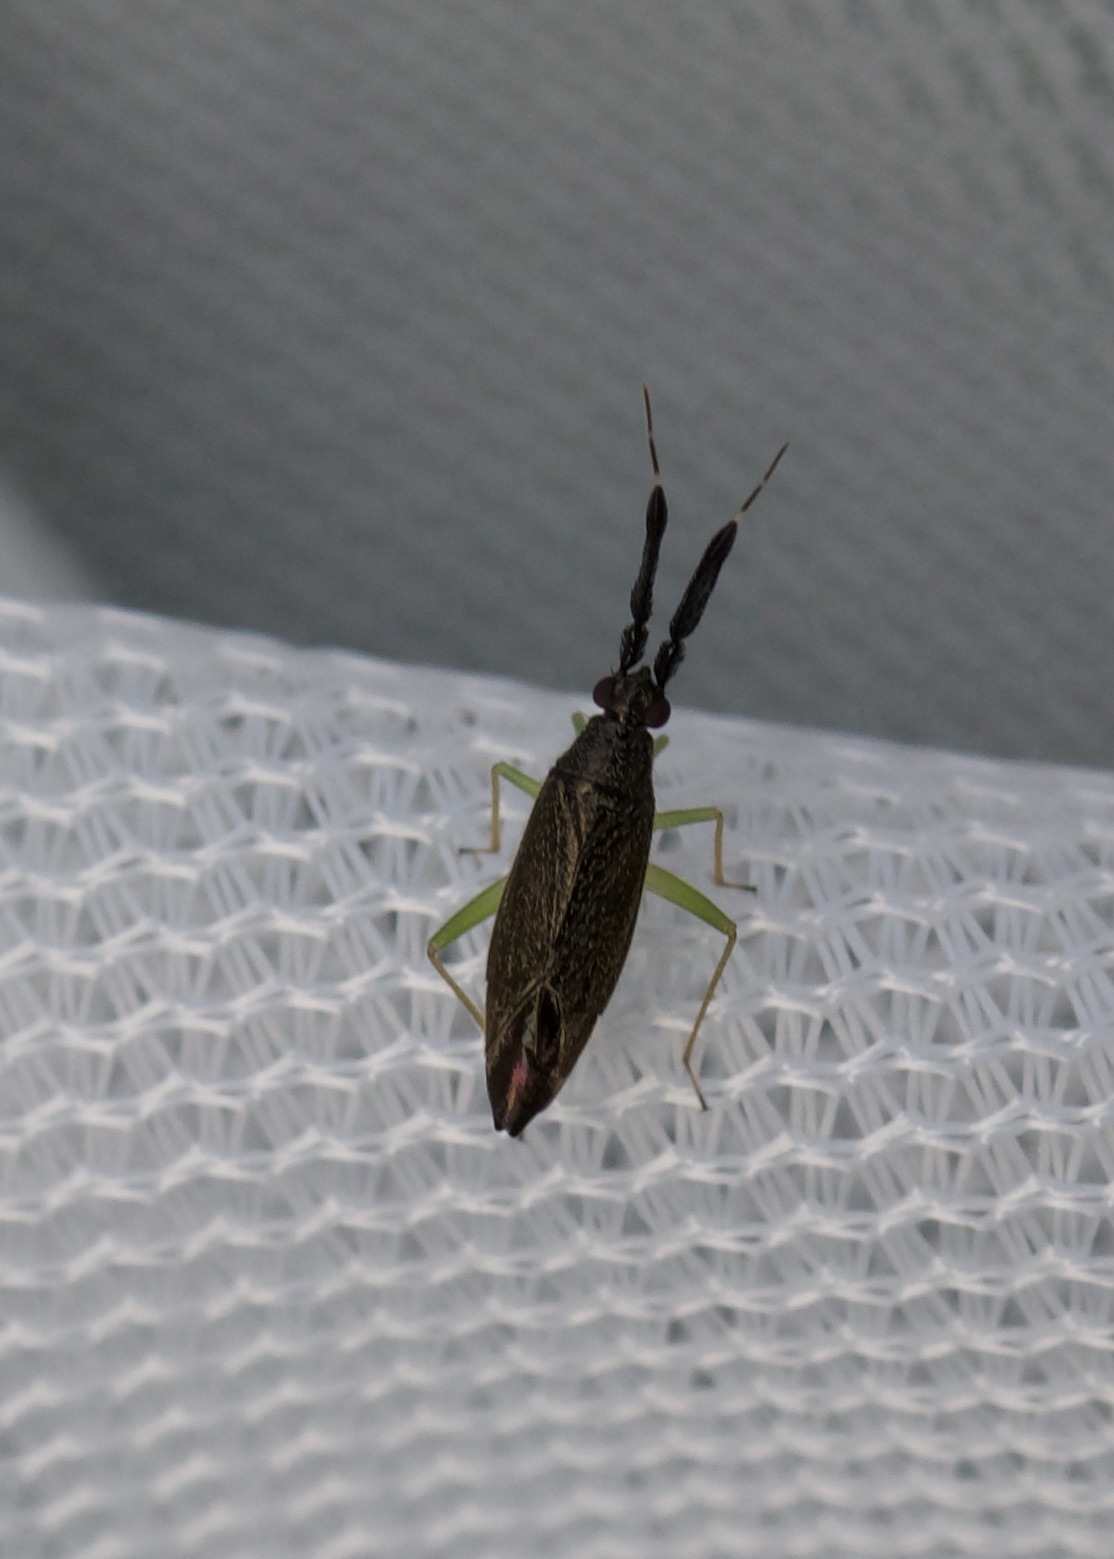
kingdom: Animalia
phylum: Arthropoda
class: Insecta
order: Hemiptera
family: Miridae
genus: Heterotoma
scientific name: Heterotoma planicornis
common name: Plant bug
